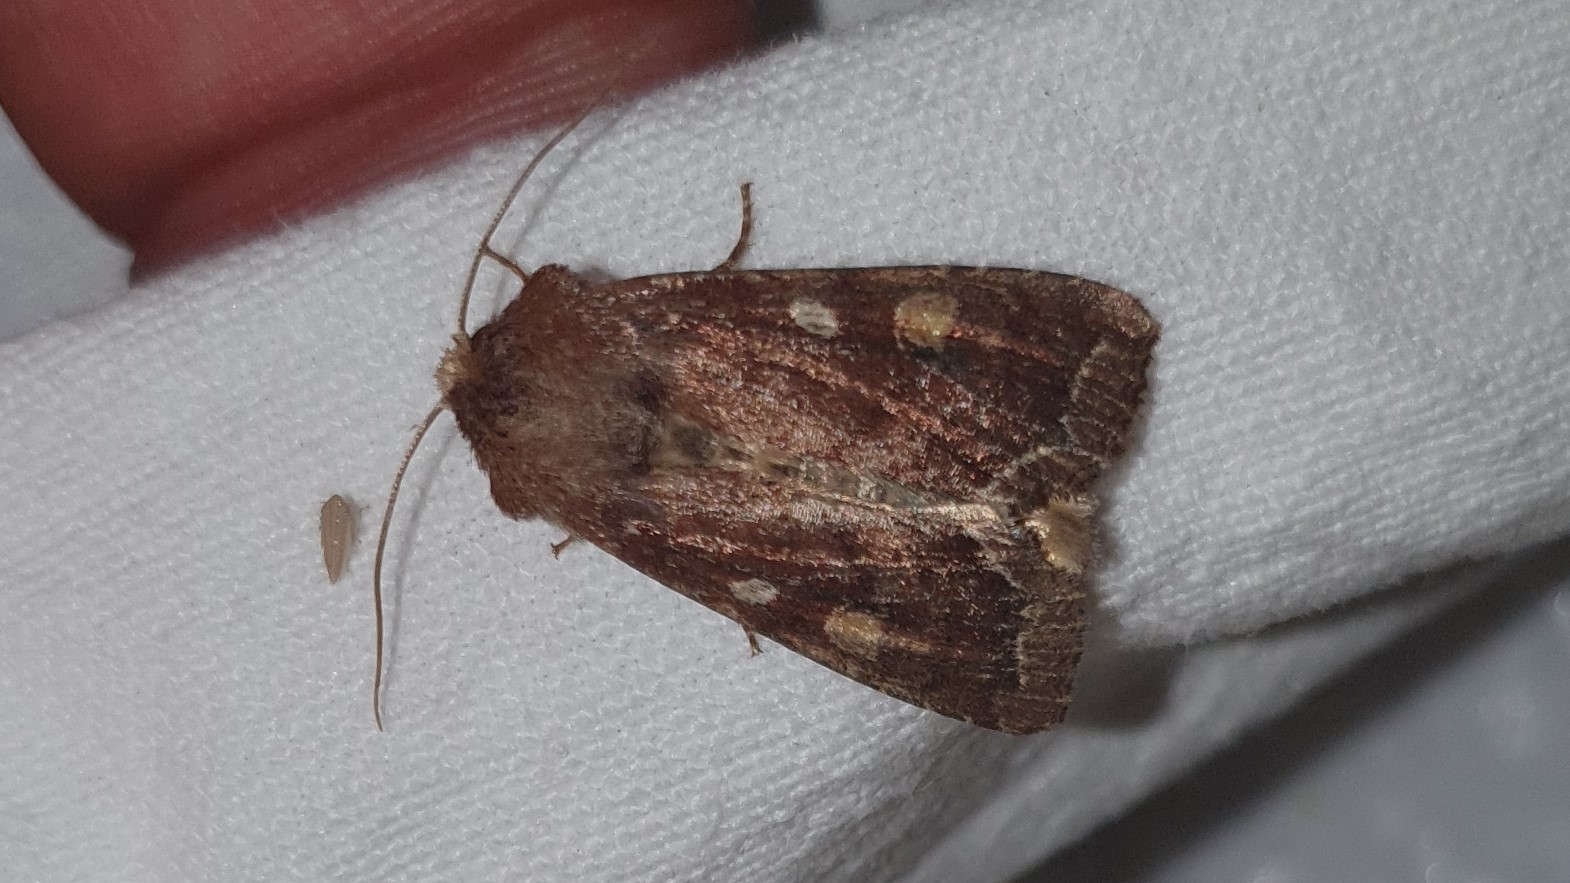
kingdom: Animalia
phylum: Arthropoda
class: Insecta
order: Lepidoptera
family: Noctuidae
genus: Lacanobia
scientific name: Lacanobia oleracea
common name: Bright-line brown-eye
